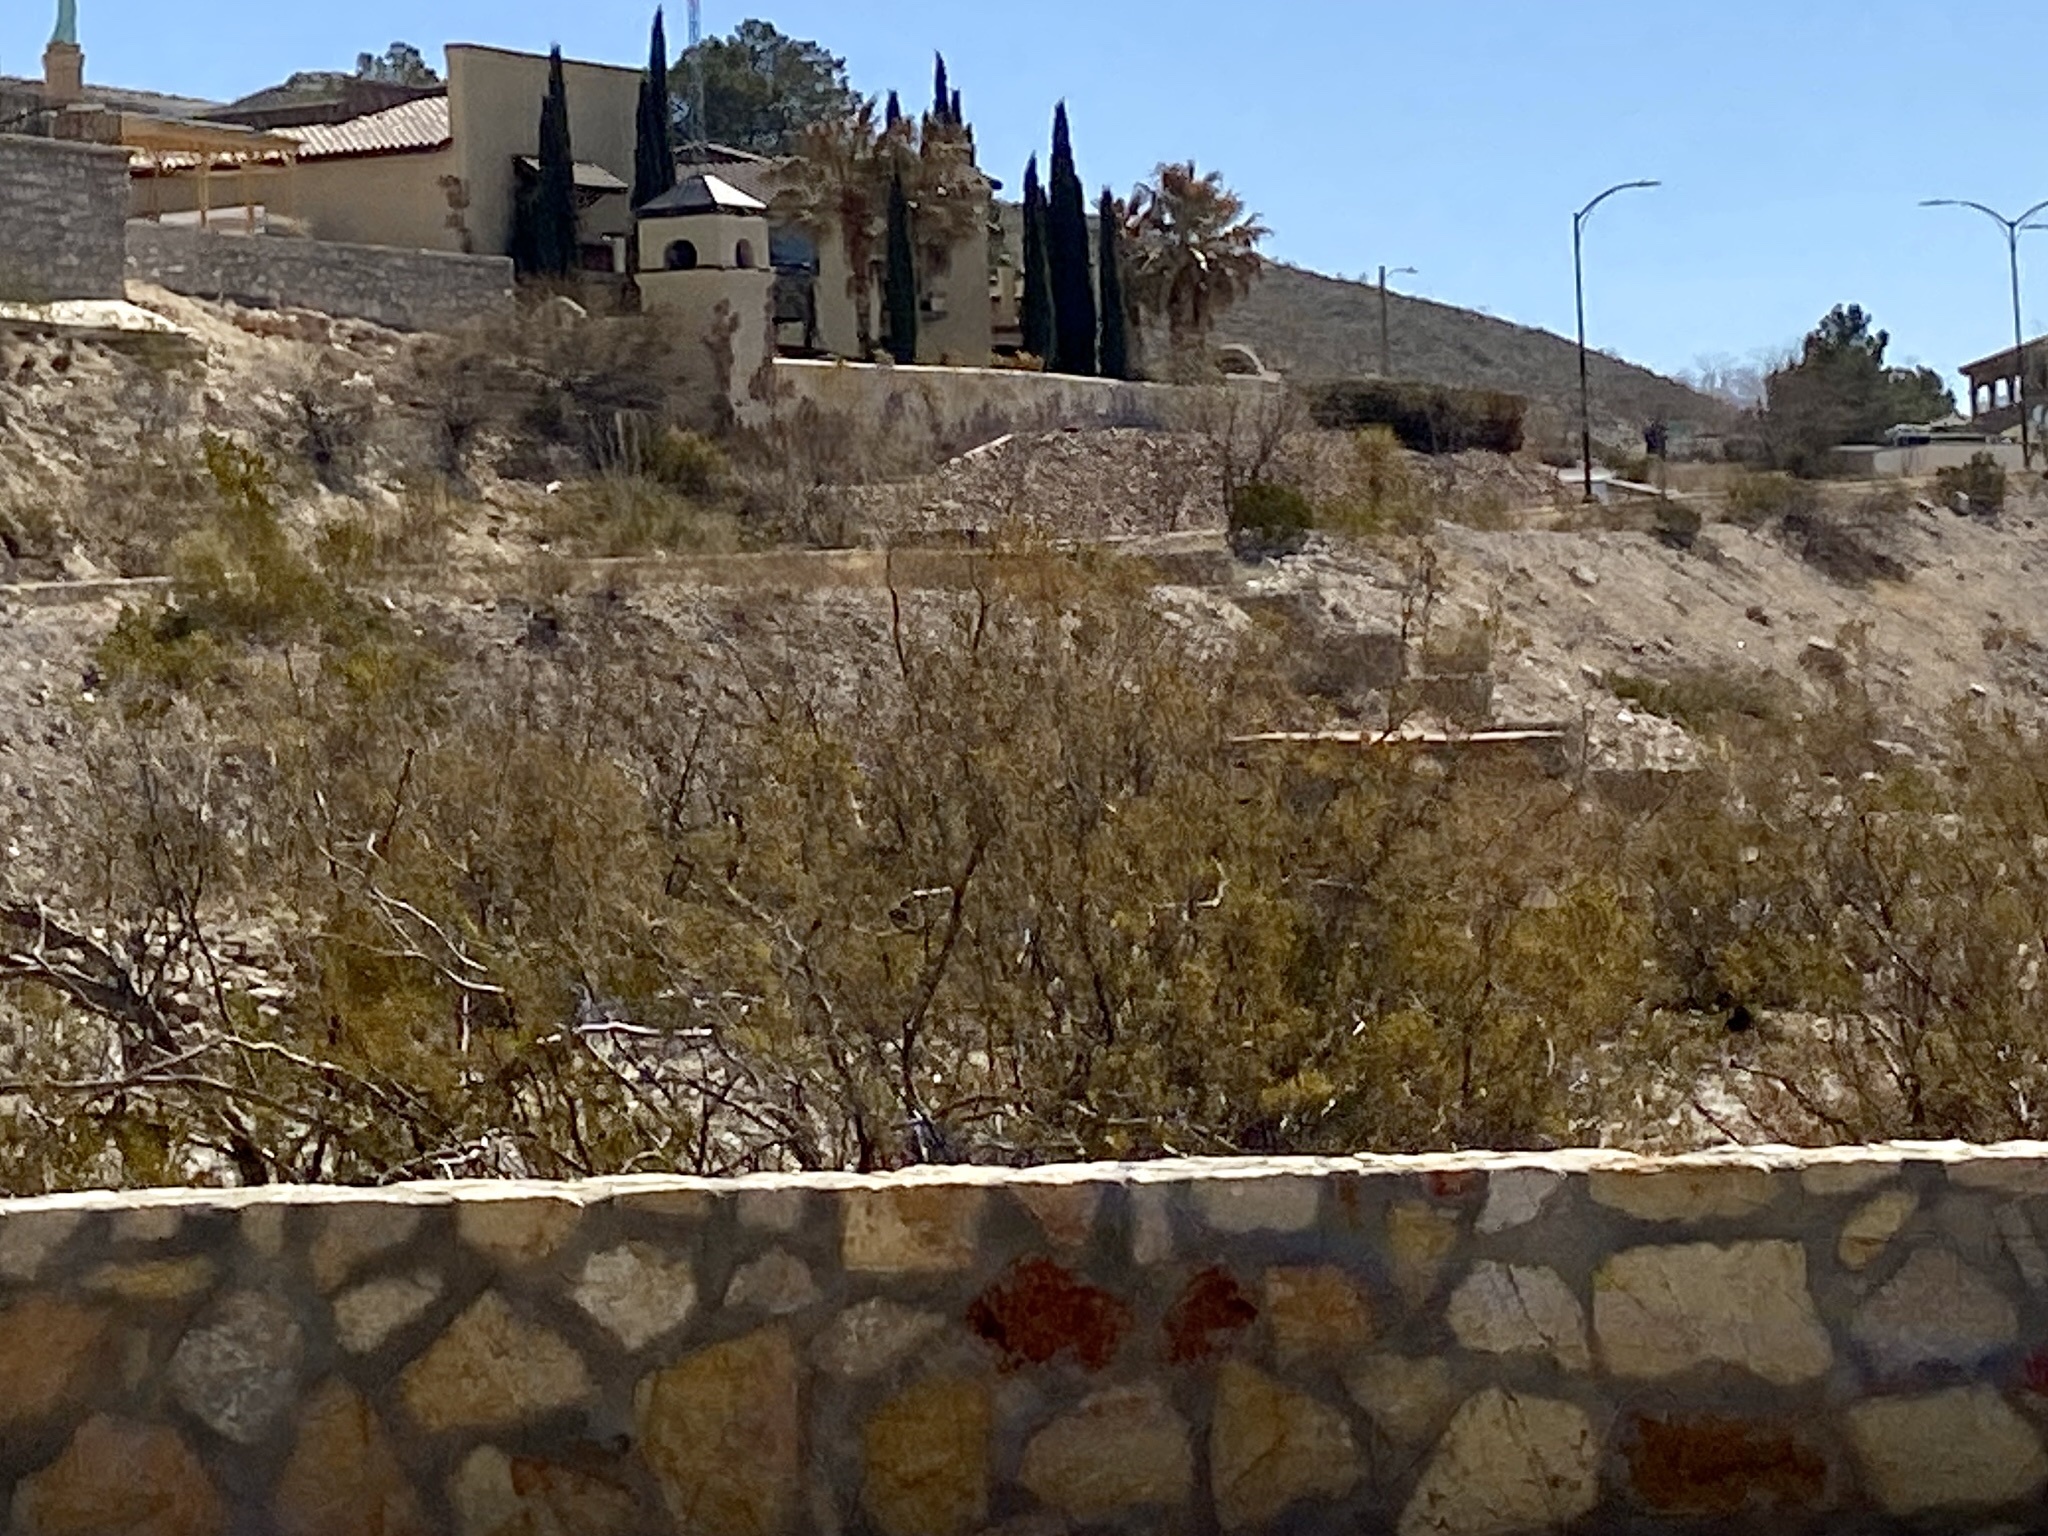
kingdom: Plantae
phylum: Tracheophyta
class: Magnoliopsida
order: Zygophyllales
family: Zygophyllaceae
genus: Larrea
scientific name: Larrea tridentata
